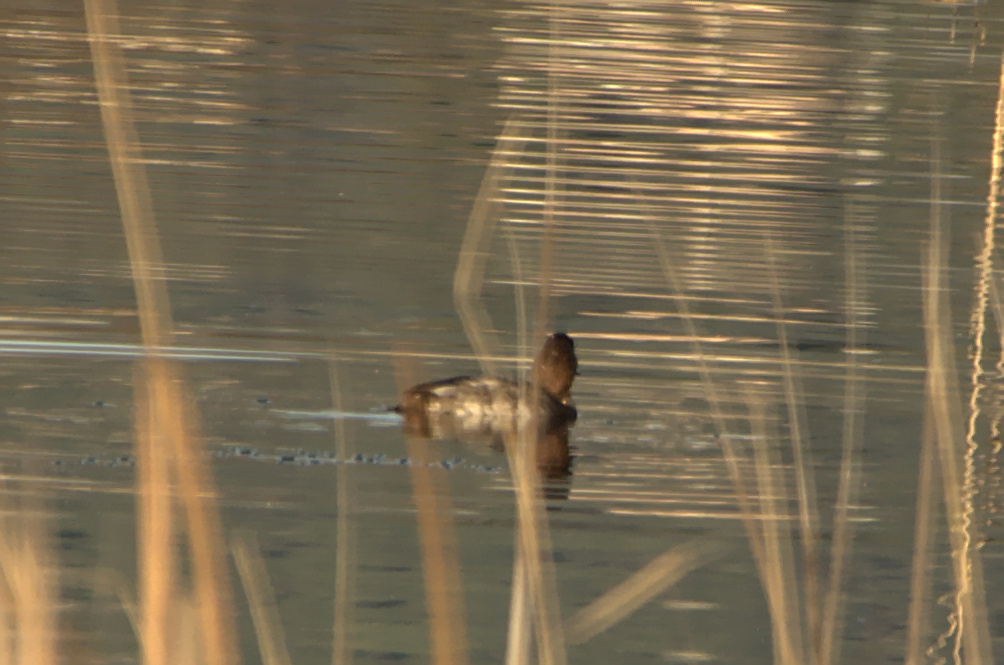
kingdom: Animalia
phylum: Chordata
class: Aves
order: Anseriformes
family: Anatidae
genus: Aythya
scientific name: Aythya ferina
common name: Common pochard
